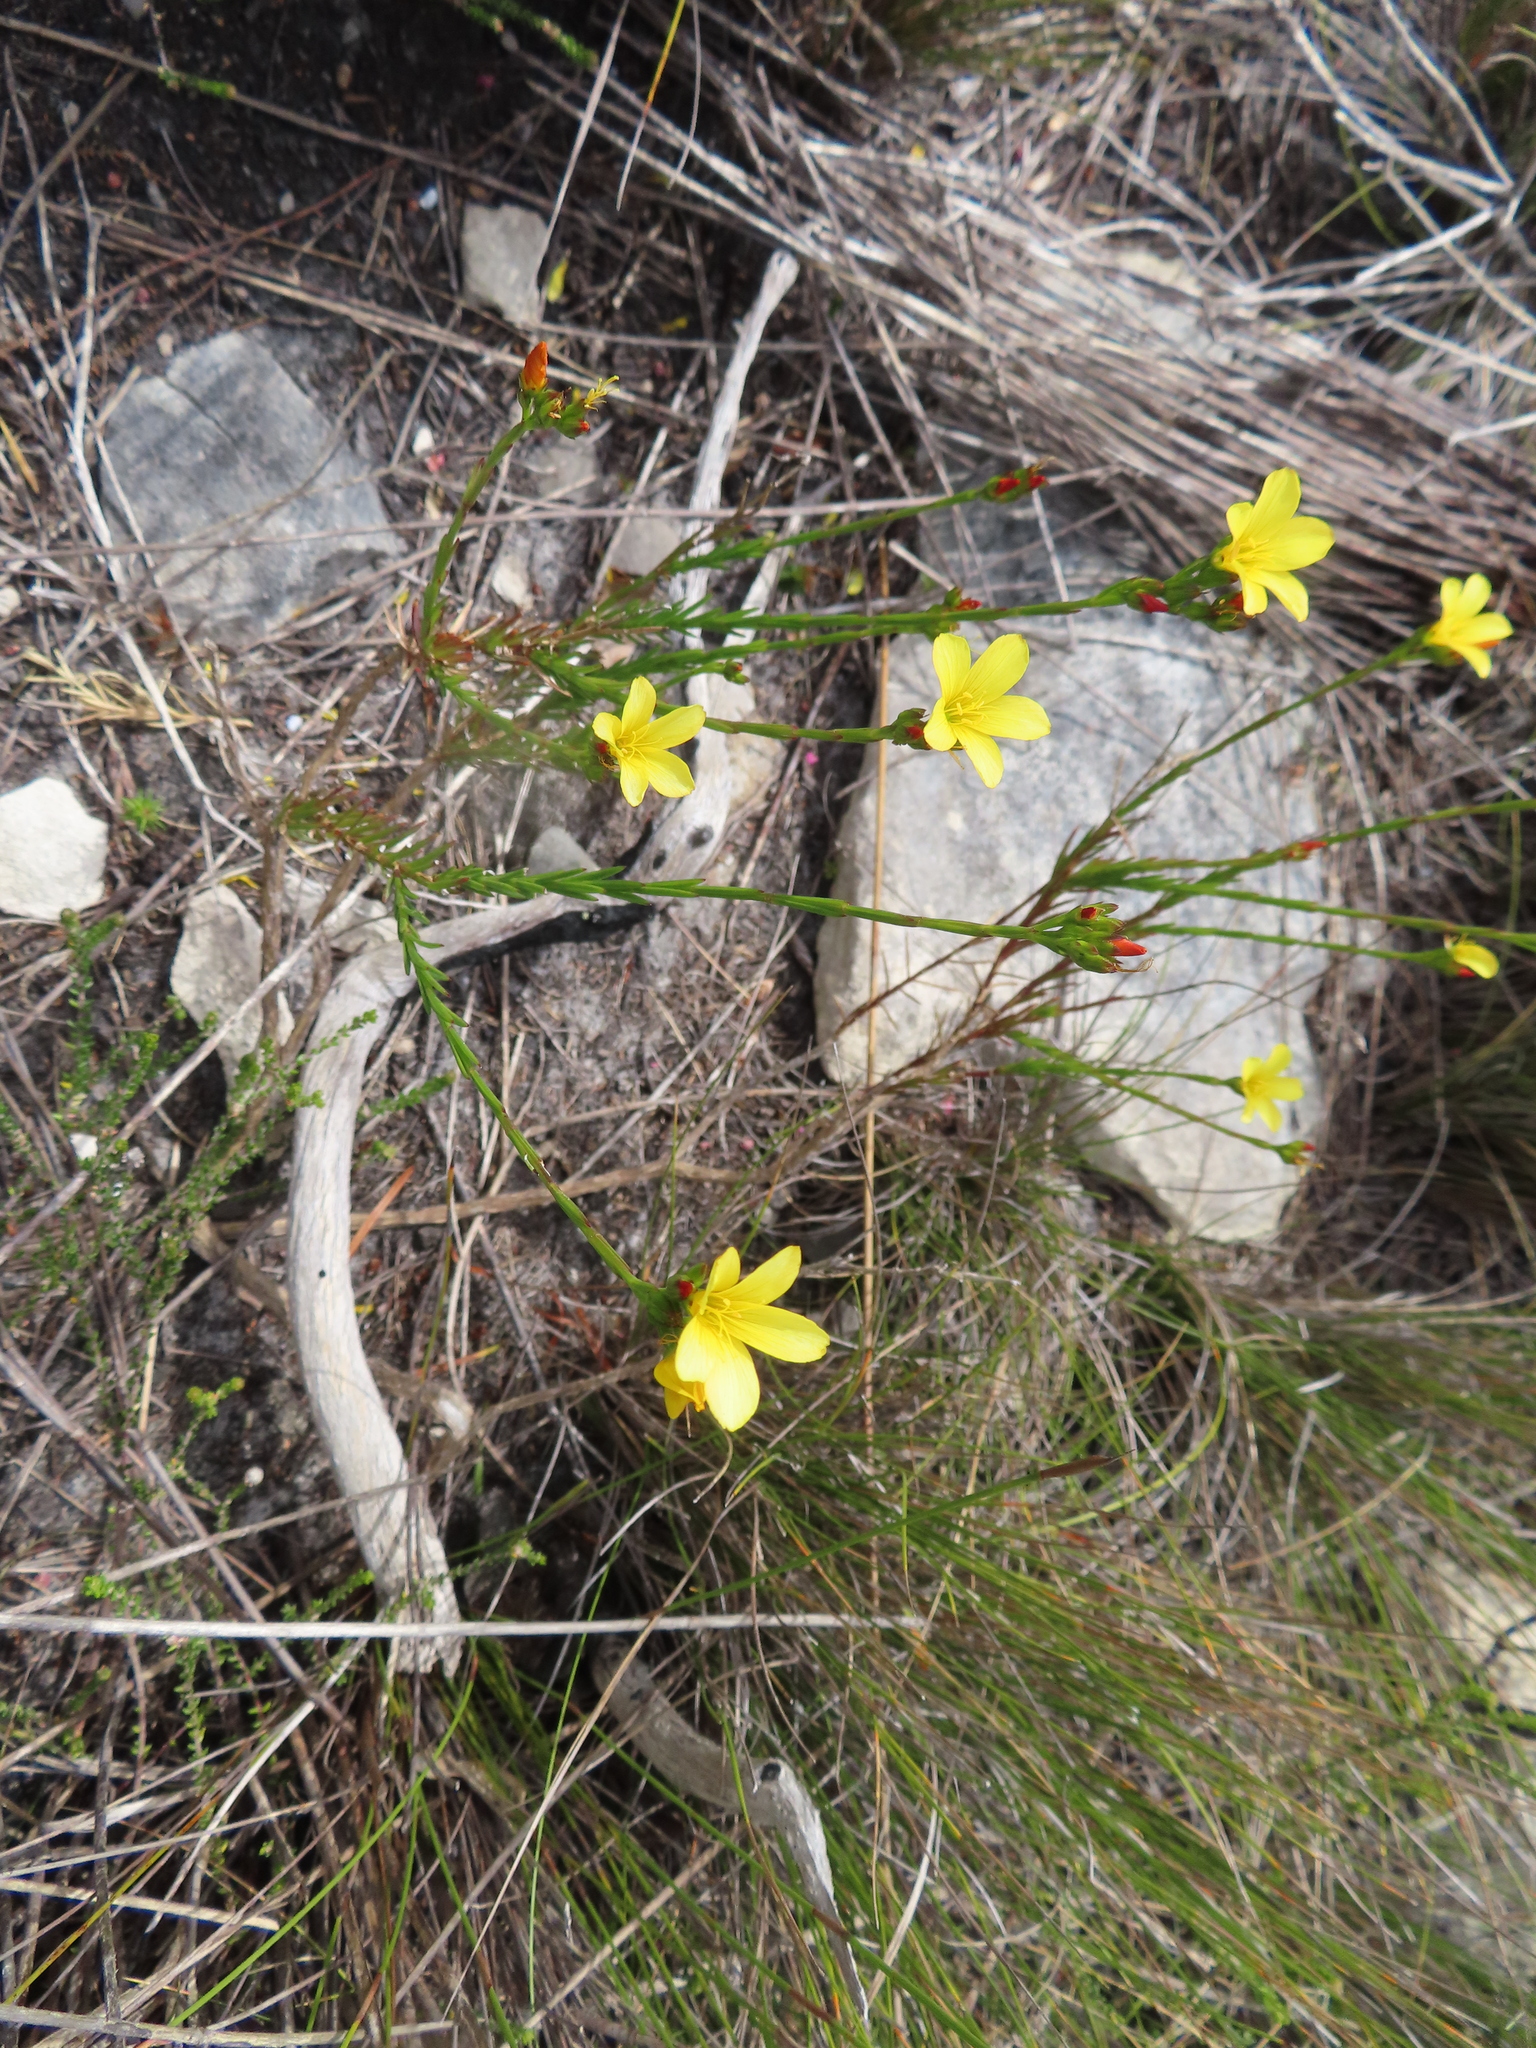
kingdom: Plantae
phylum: Tracheophyta
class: Magnoliopsida
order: Malpighiales
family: Linaceae
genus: Linum
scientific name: Linum africanum
